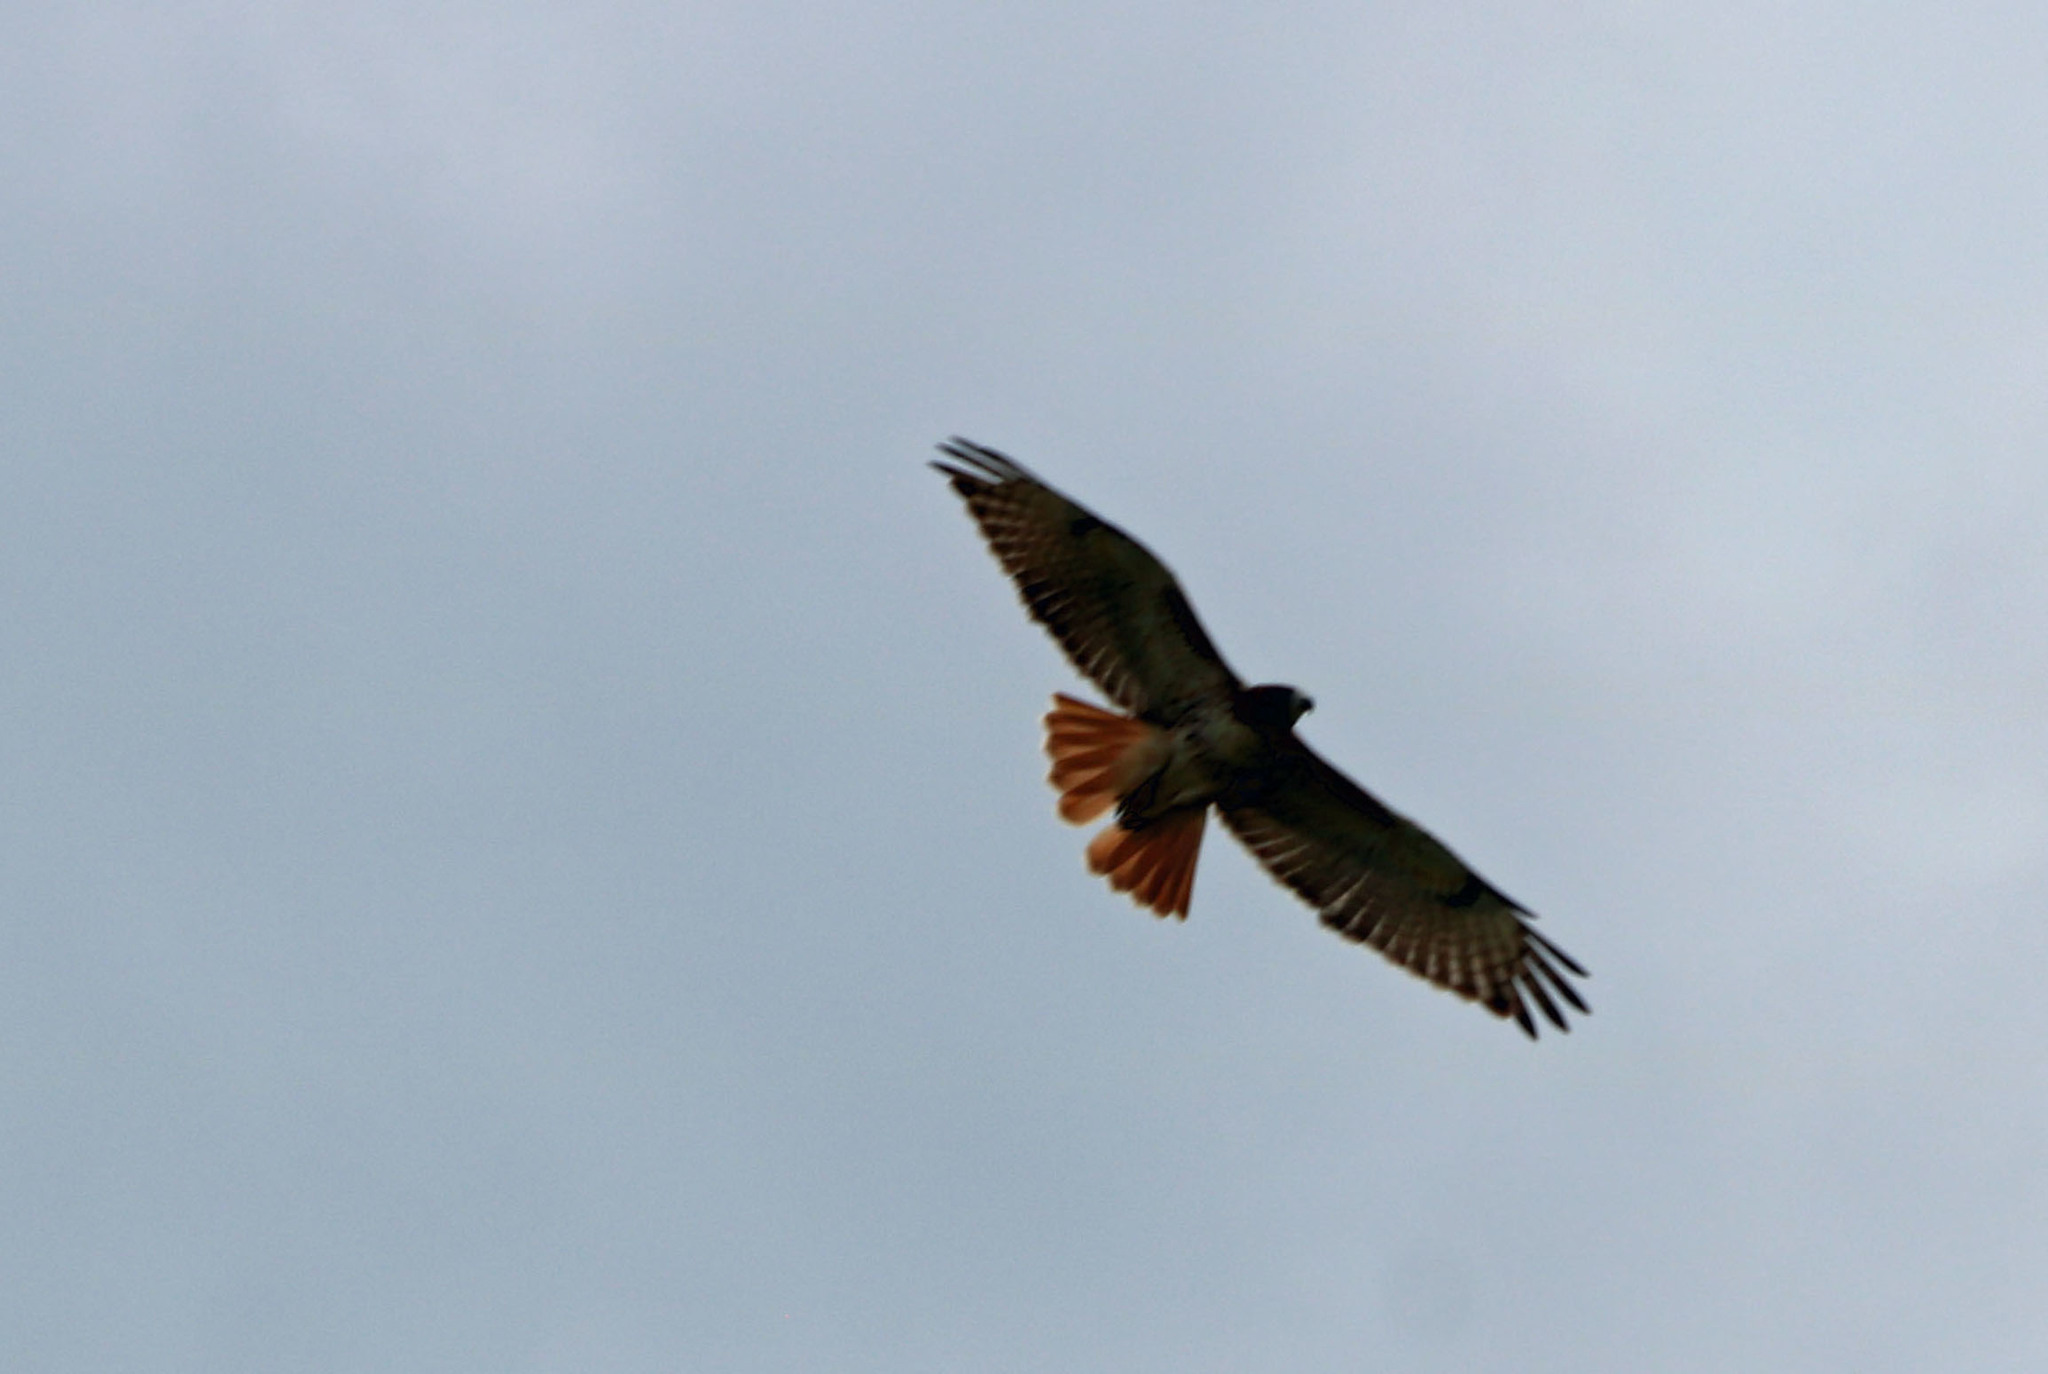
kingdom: Animalia
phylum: Chordata
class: Aves
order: Accipitriformes
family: Accipitridae
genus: Buteo
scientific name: Buteo jamaicensis
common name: Red-tailed hawk
